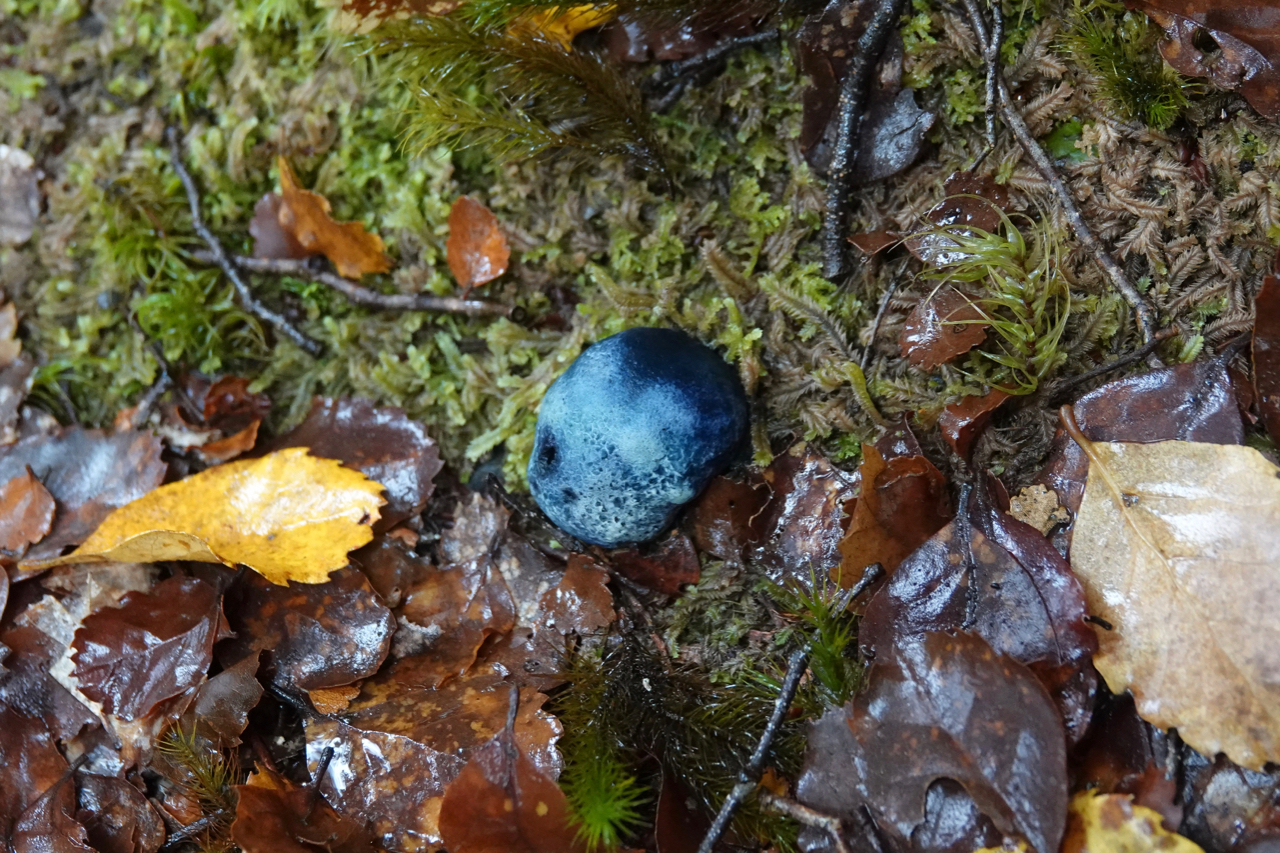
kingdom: Fungi
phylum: Basidiomycota
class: Agaricomycetes
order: Boletales
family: Boletaceae
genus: Leccinum
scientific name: Leccinum pachyderme
